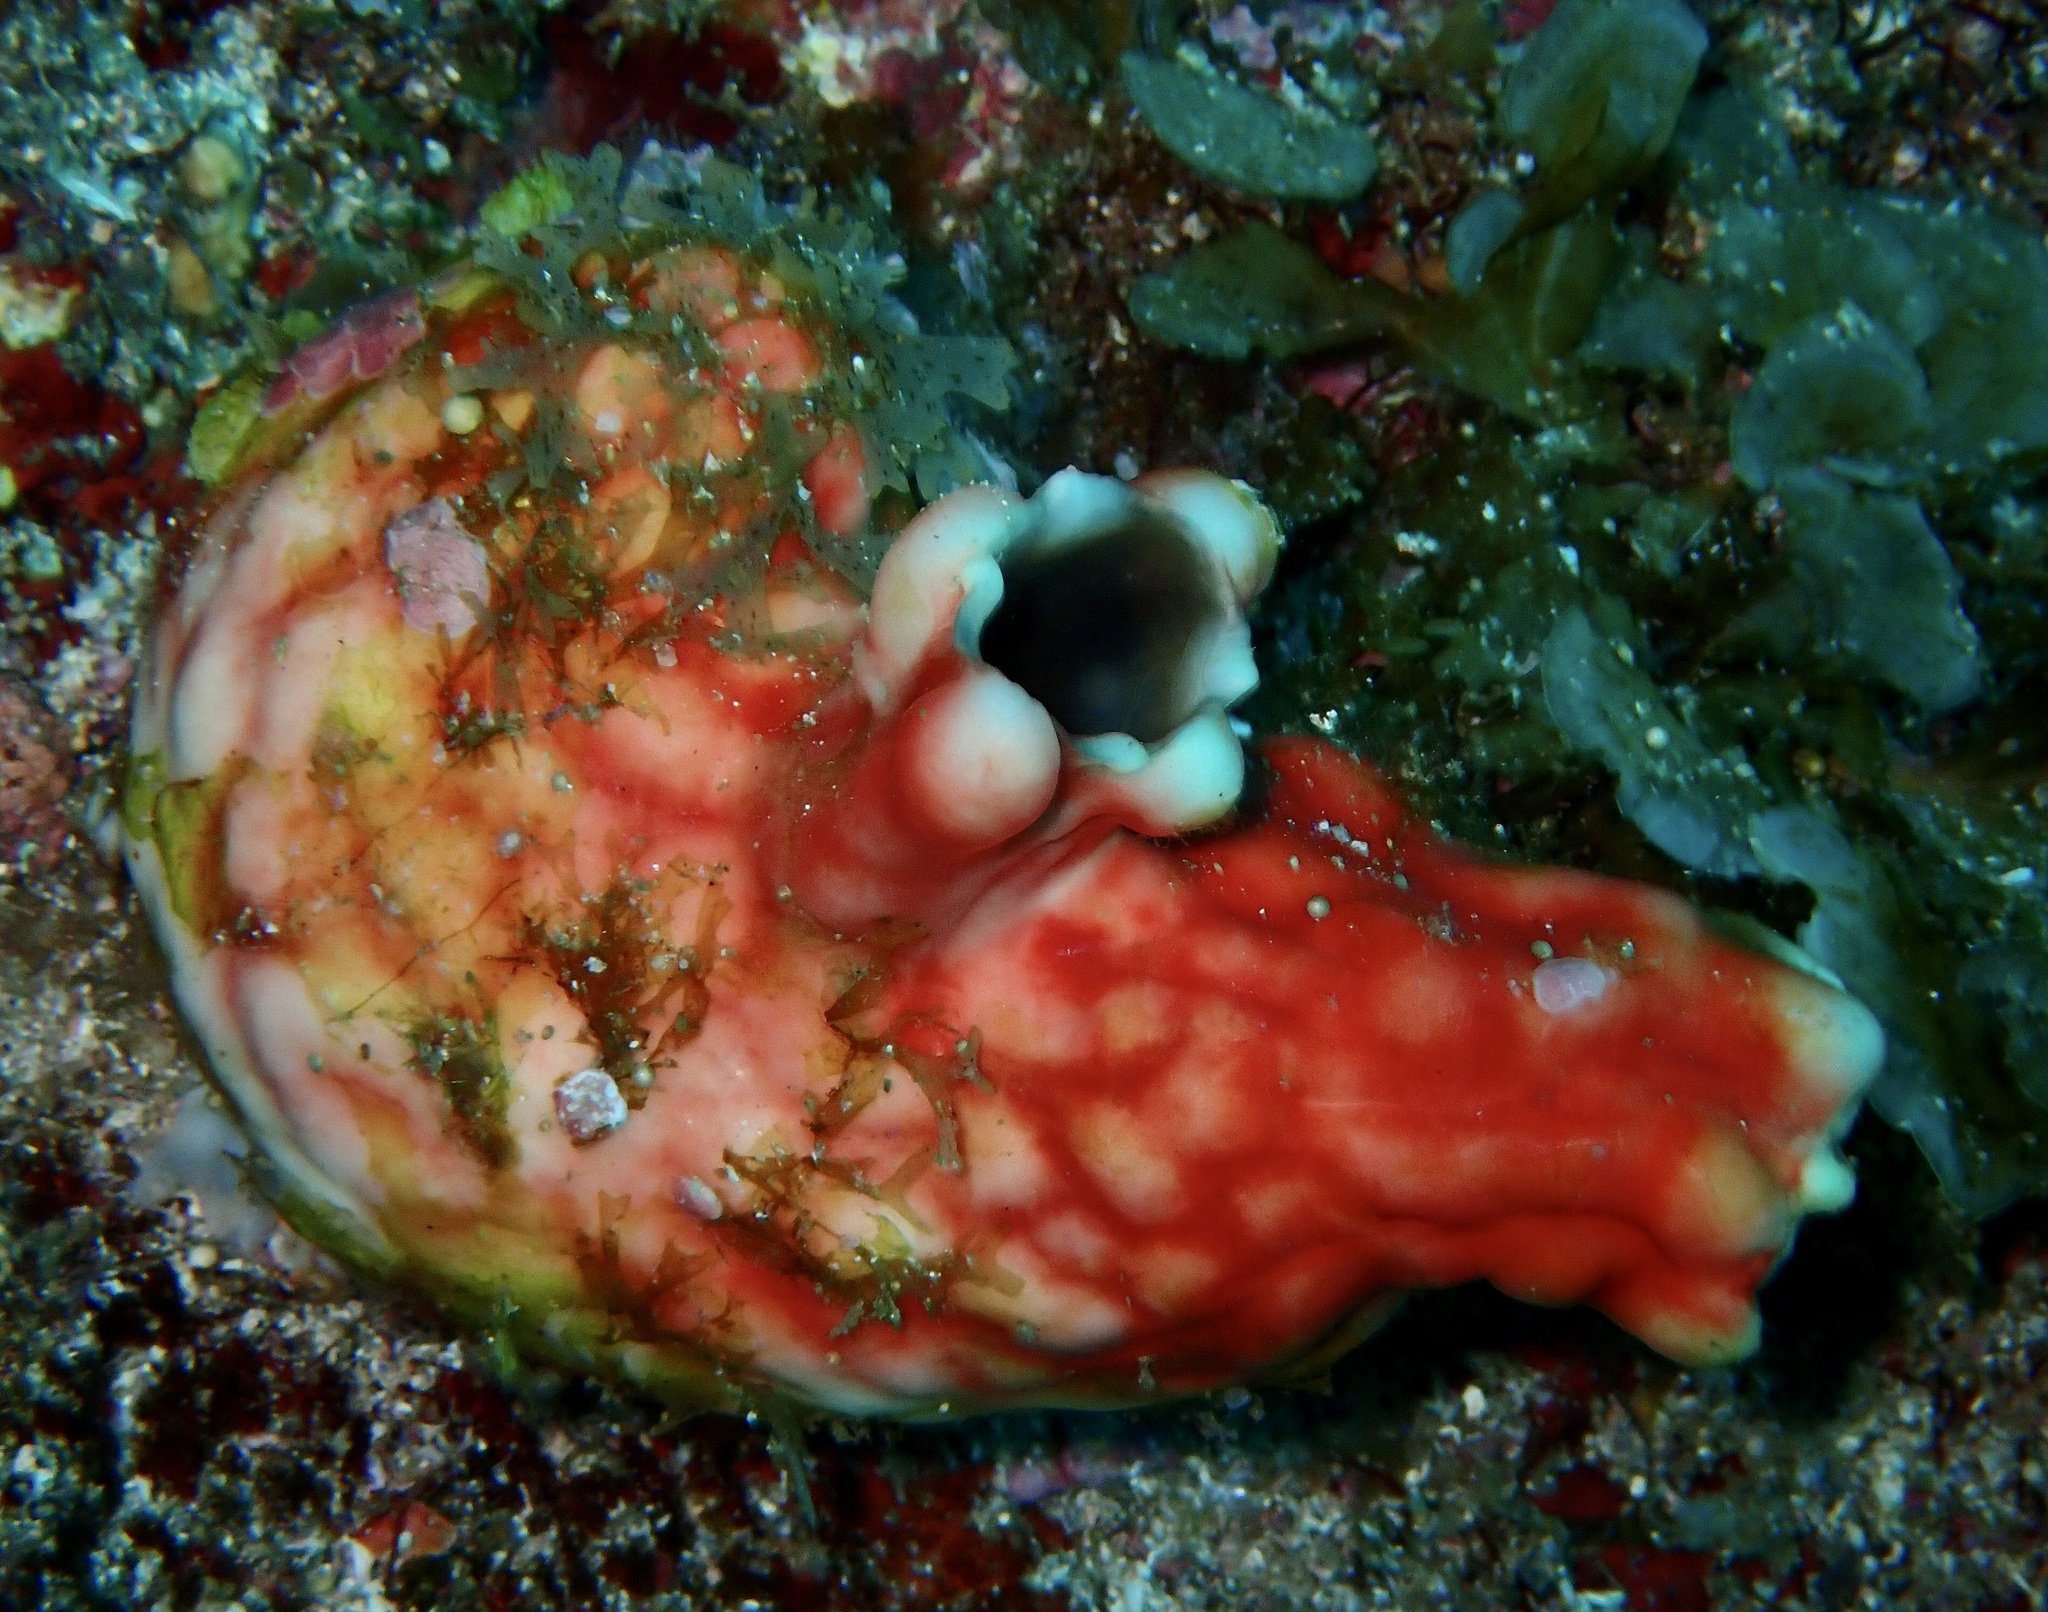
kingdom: Animalia
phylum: Chordata
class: Ascidiacea
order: Stolidobranchia
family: Styelidae
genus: Cnemidocarpa
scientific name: Cnemidocarpa stolonifera
